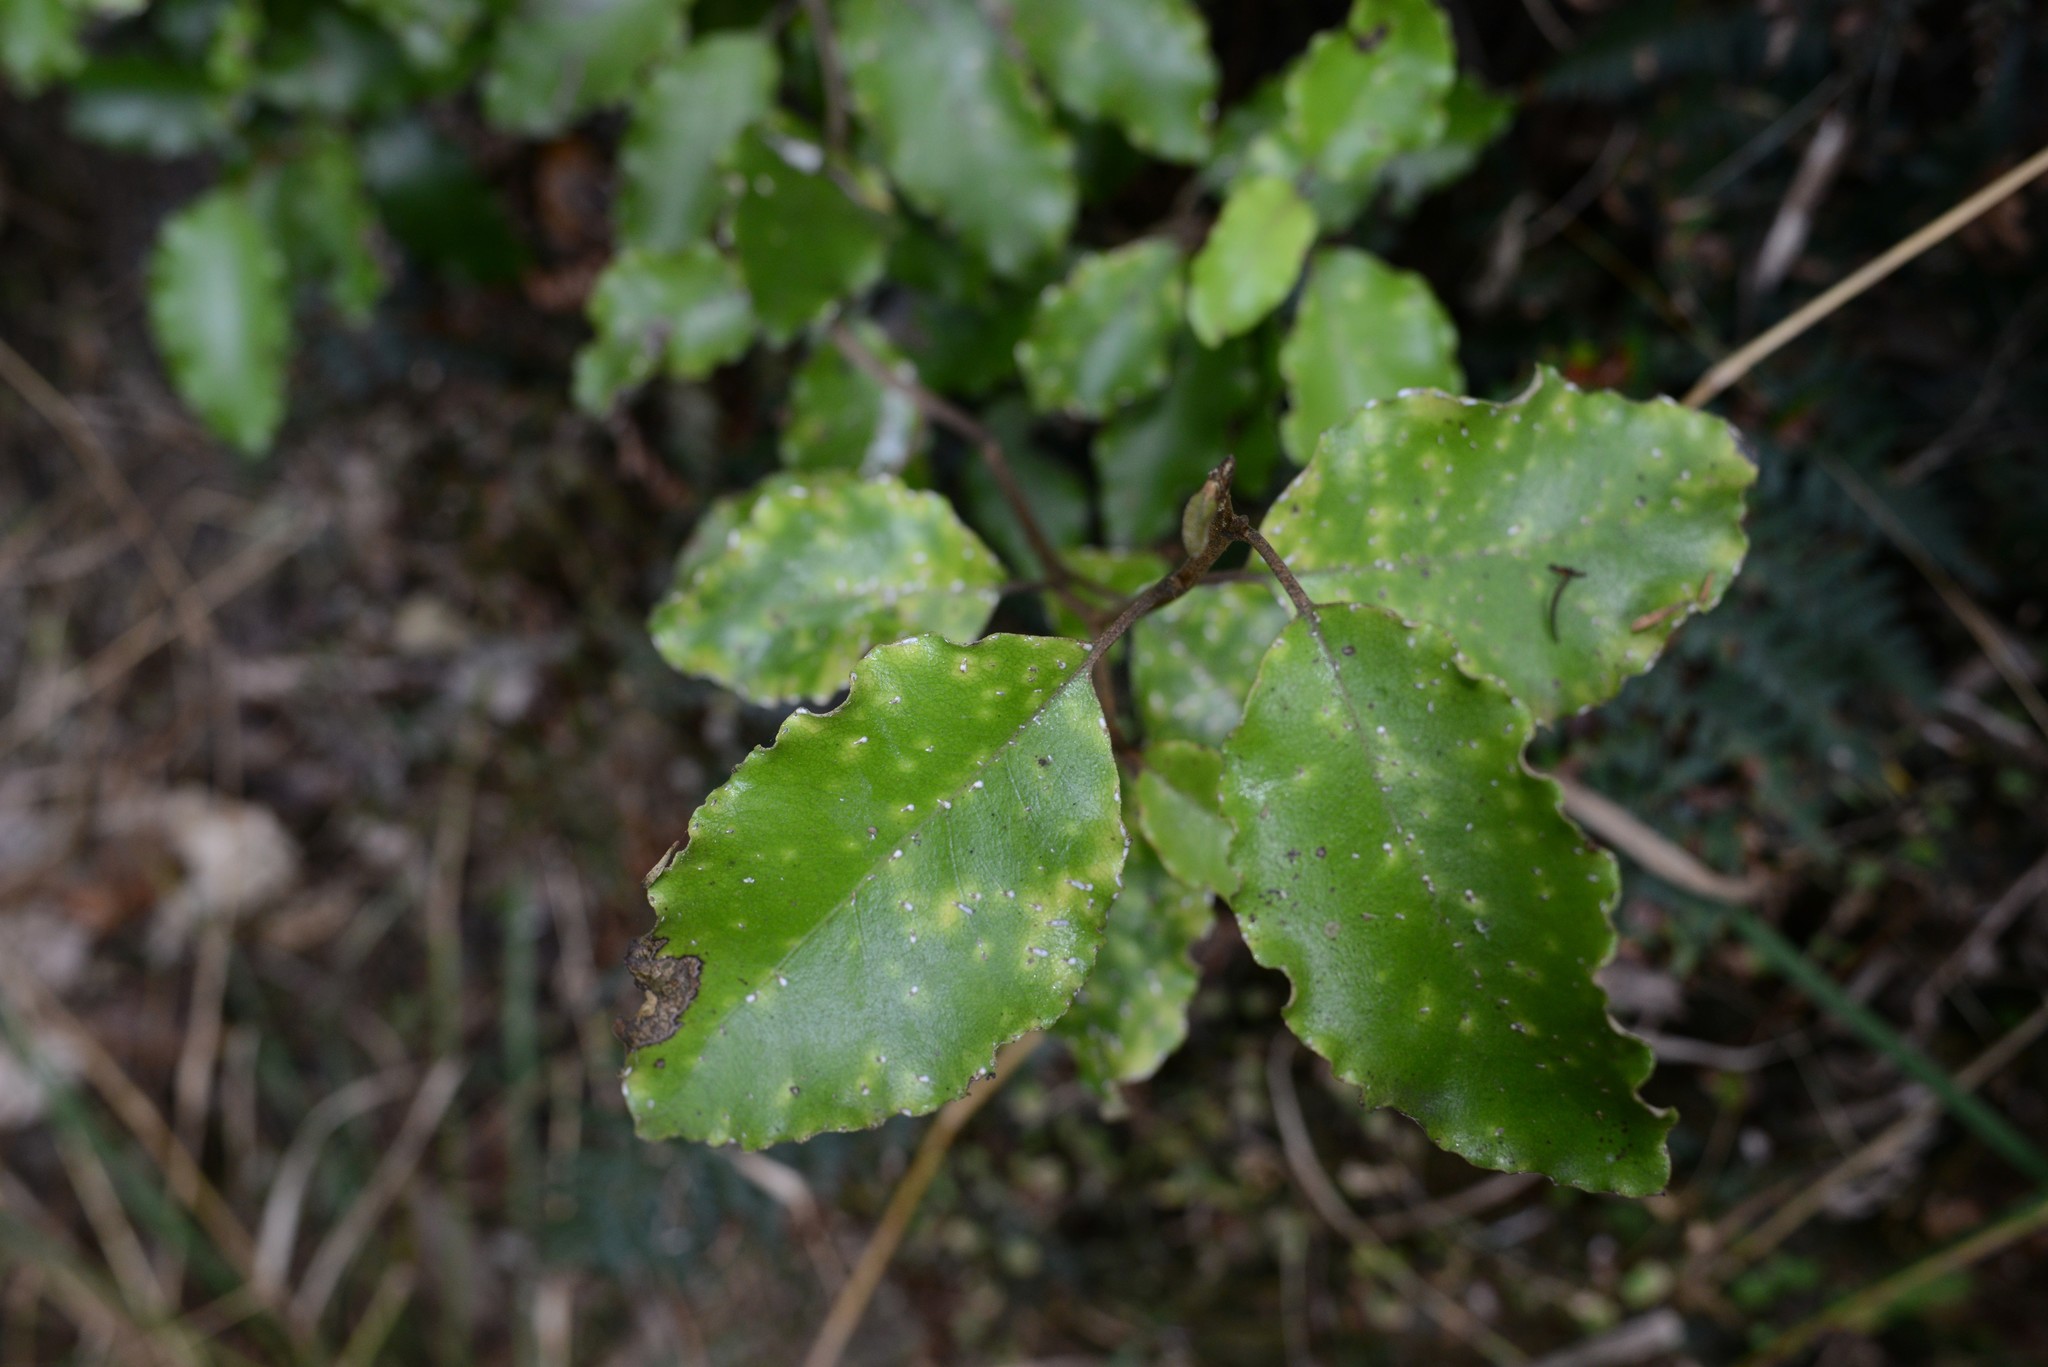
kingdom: Plantae
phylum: Tracheophyta
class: Magnoliopsida
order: Asterales
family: Asteraceae
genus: Olearia
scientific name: Olearia paniculata
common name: Akiraho
